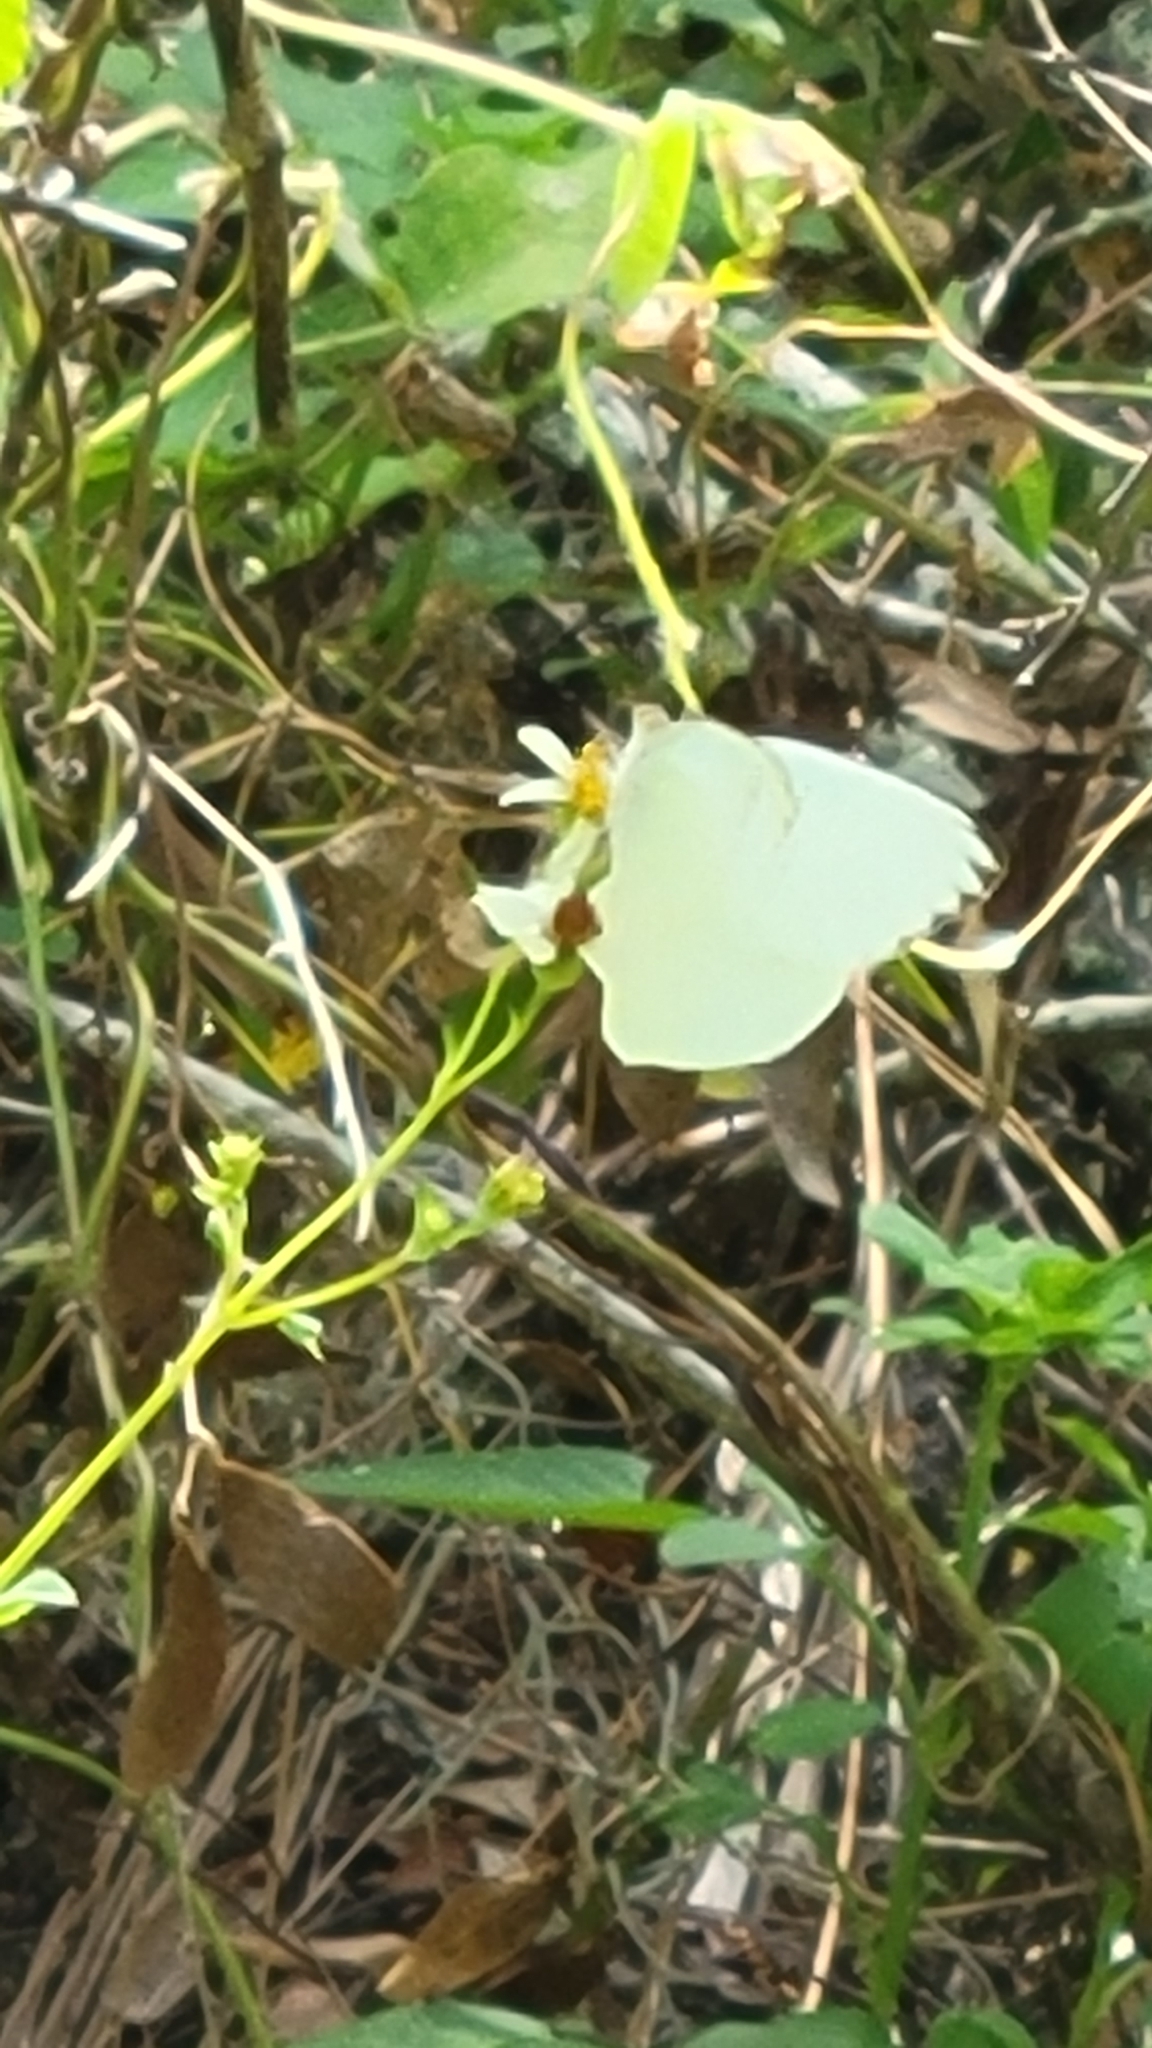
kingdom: Animalia
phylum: Arthropoda
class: Insecta
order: Lepidoptera
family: Pieridae
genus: Ascia
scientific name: Ascia monuste
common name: Great southern white
